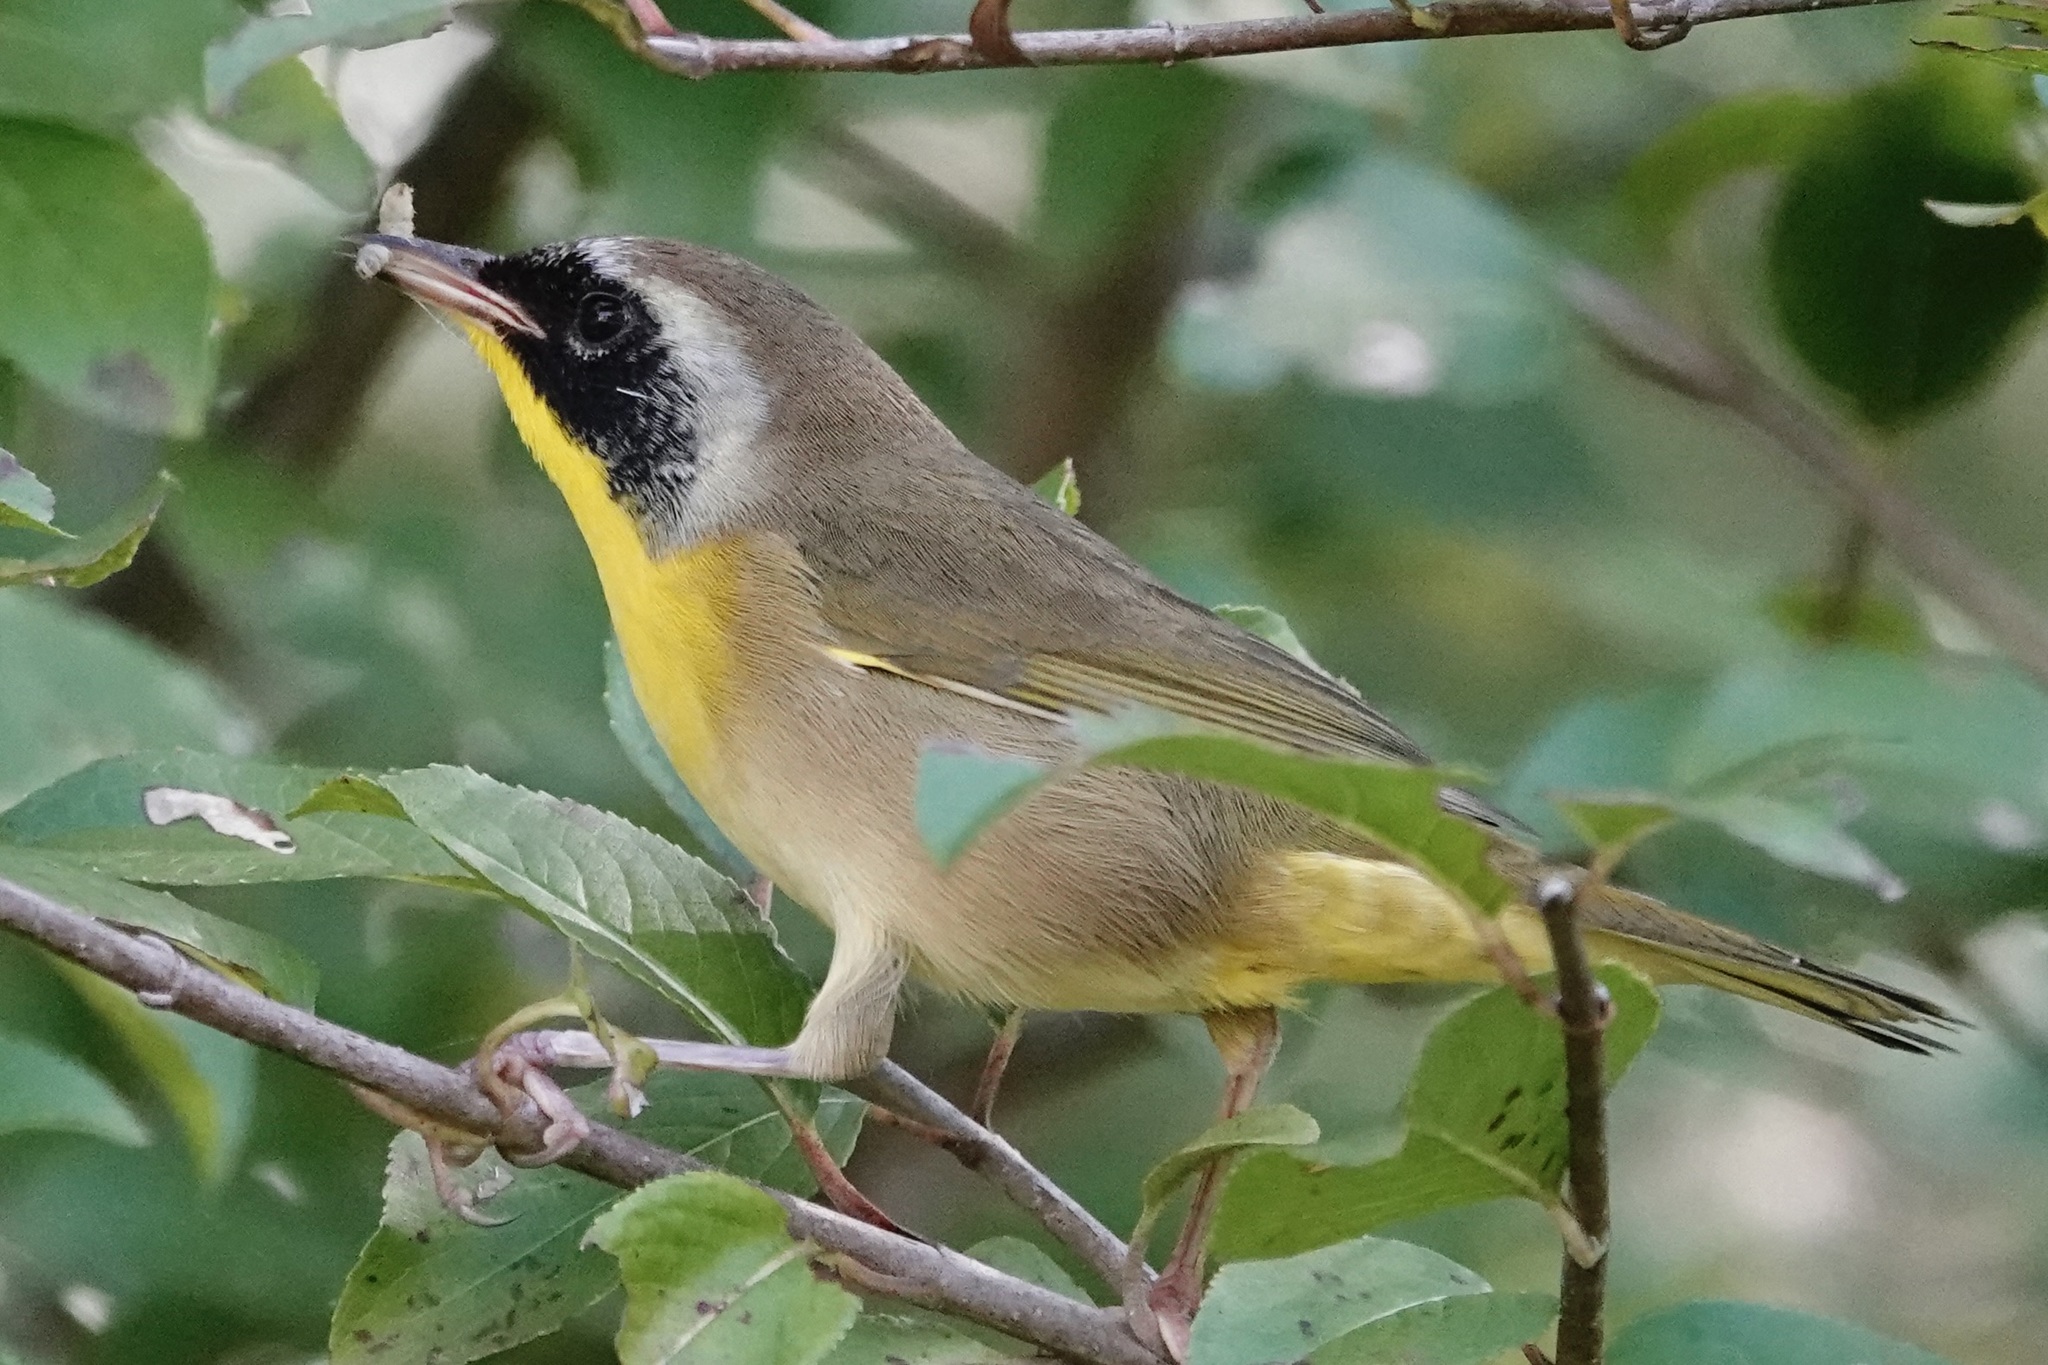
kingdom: Animalia
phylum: Chordata
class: Aves
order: Passeriformes
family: Parulidae
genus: Geothlypis
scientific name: Geothlypis trichas
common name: Common yellowthroat
